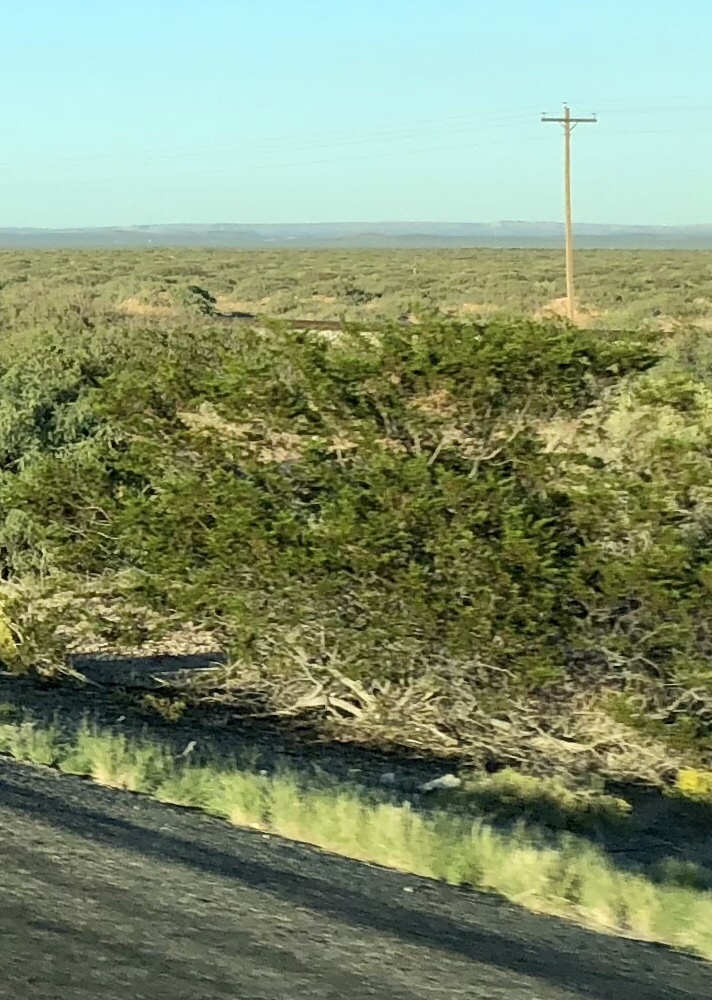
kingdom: Plantae
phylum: Tracheophyta
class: Magnoliopsida
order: Zygophyllales
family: Zygophyllaceae
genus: Larrea
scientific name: Larrea tridentata
